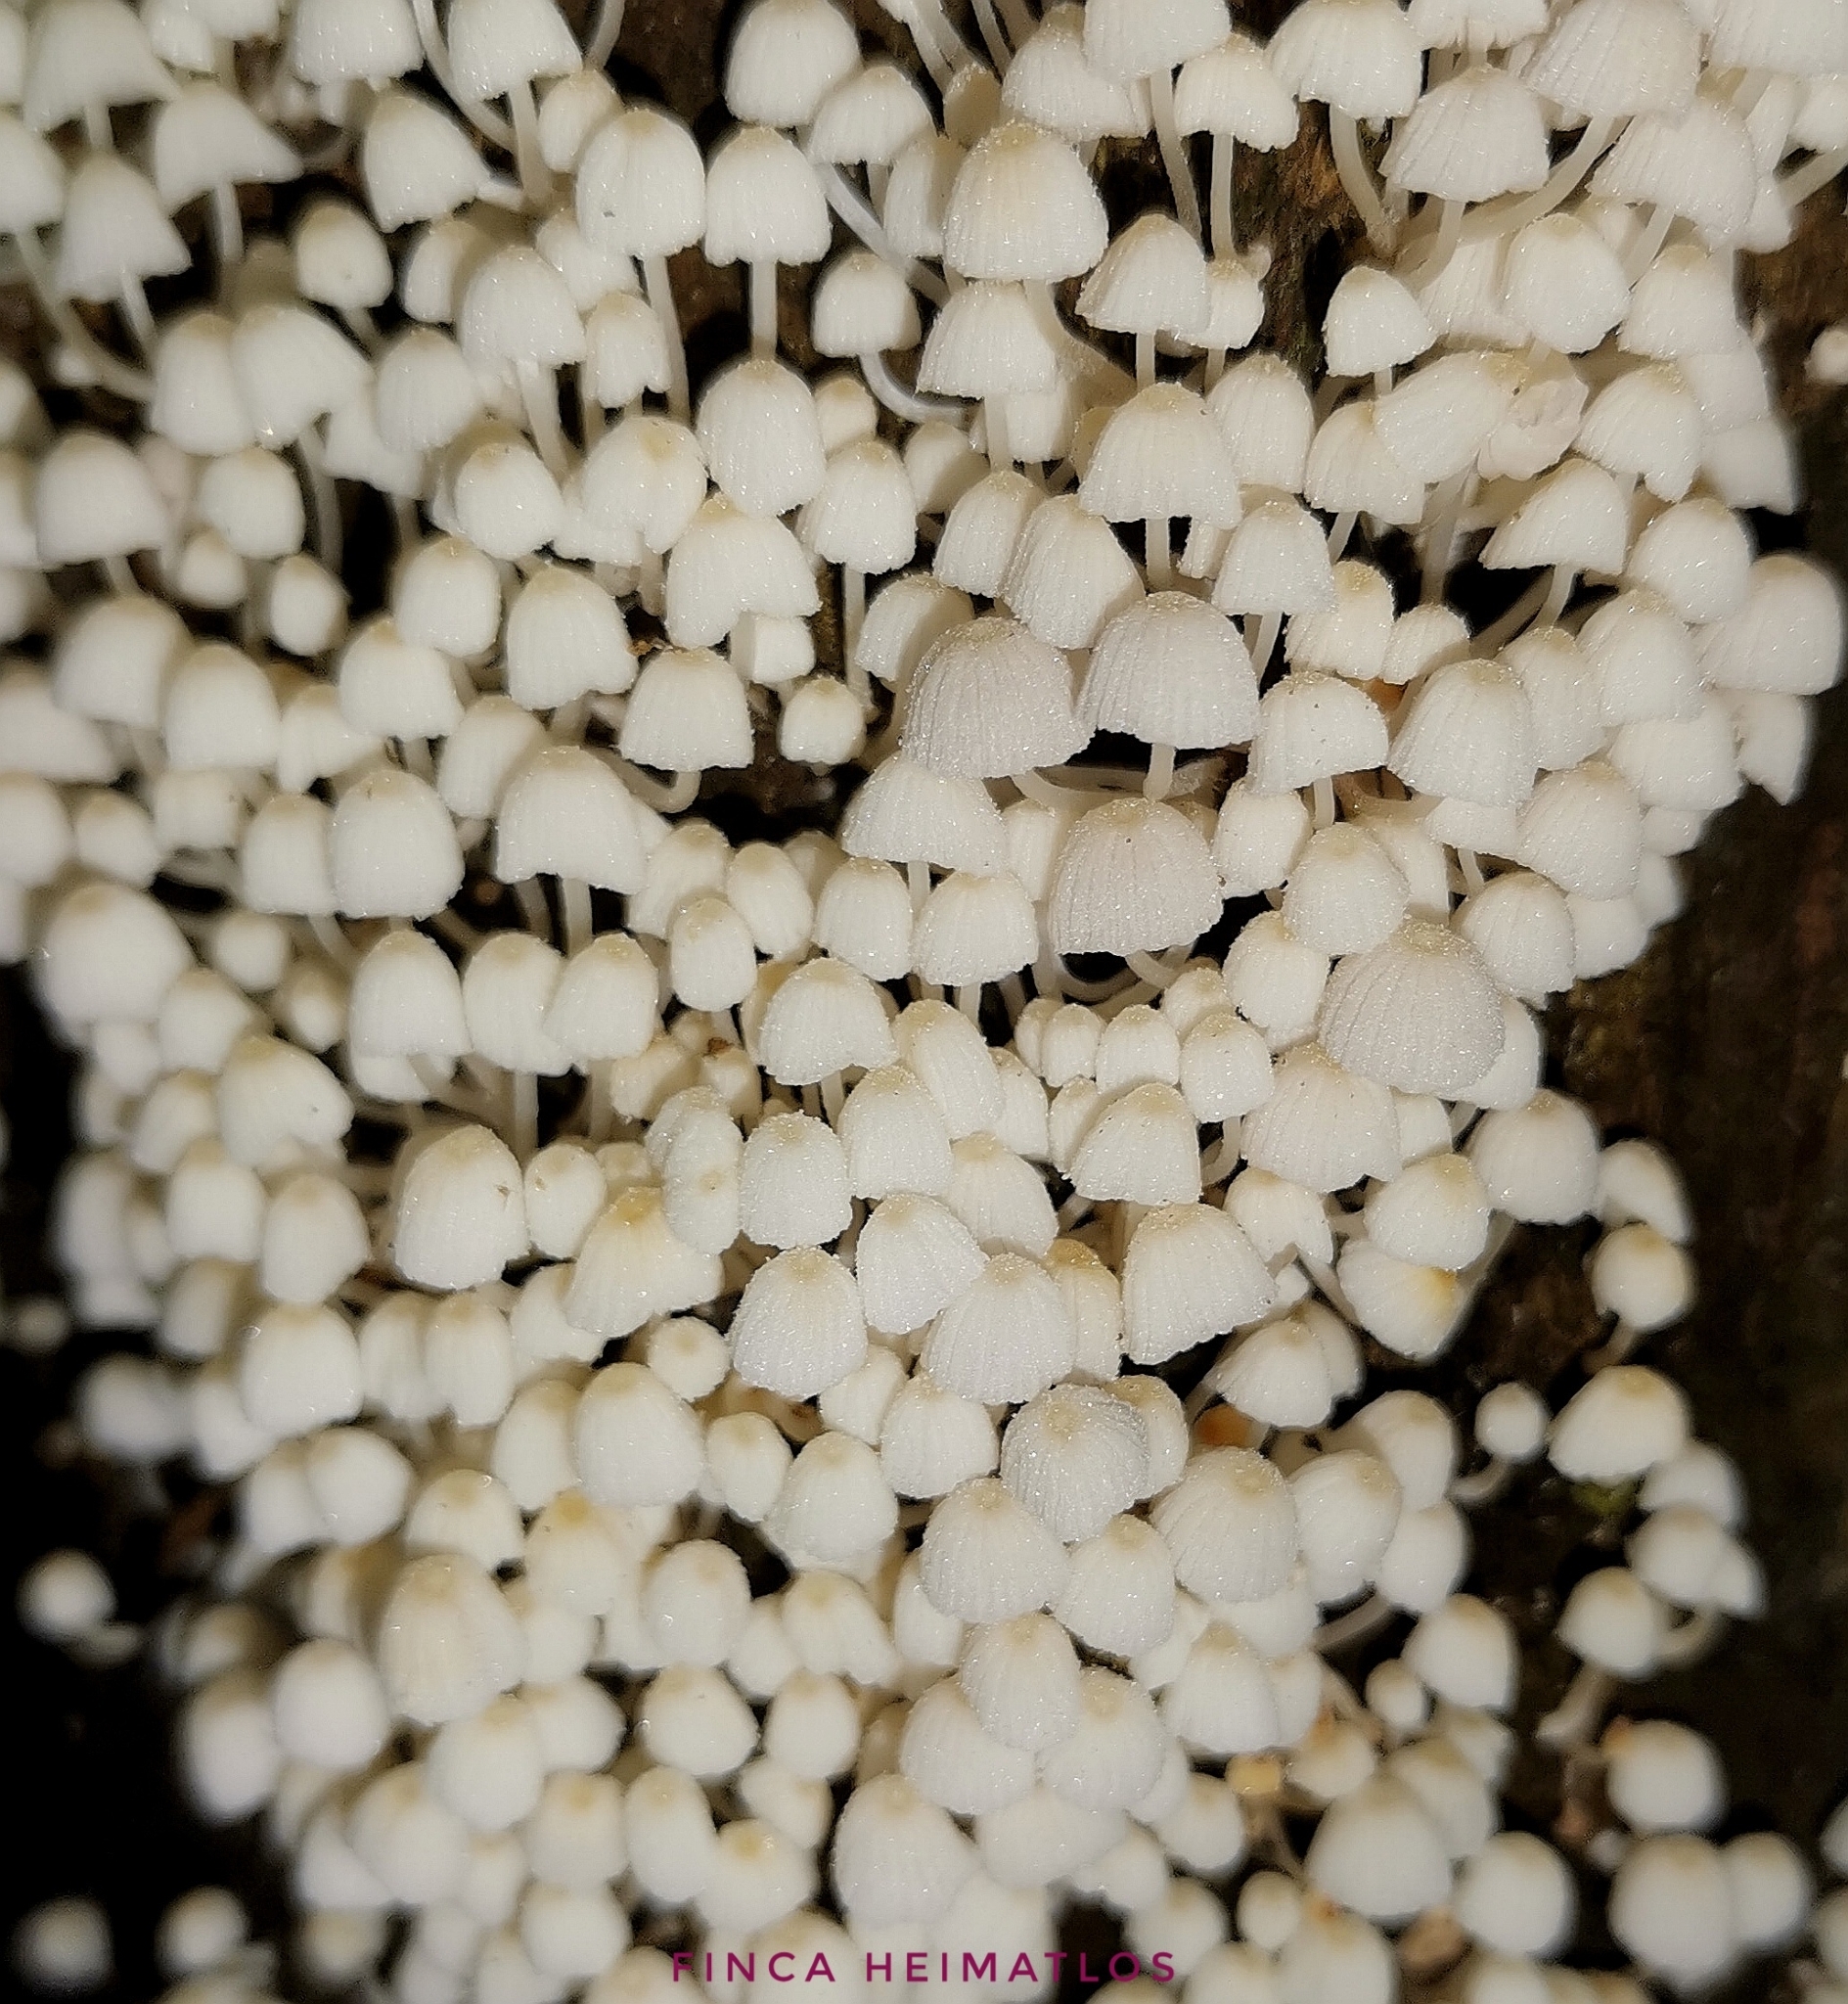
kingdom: Fungi
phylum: Basidiomycota
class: Agaricomycetes
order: Agaricales
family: Psathyrellaceae
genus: Coprinellus
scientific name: Coprinellus disseminatus
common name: Fairies' bonnets
